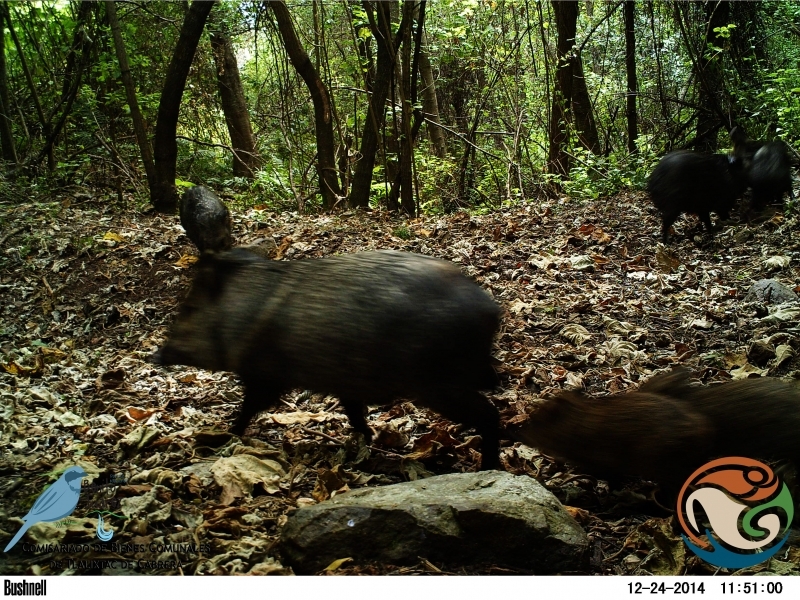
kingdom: Animalia
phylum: Chordata
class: Mammalia
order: Artiodactyla
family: Tayassuidae
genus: Pecari
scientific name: Pecari tajacu
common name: Collared peccary
